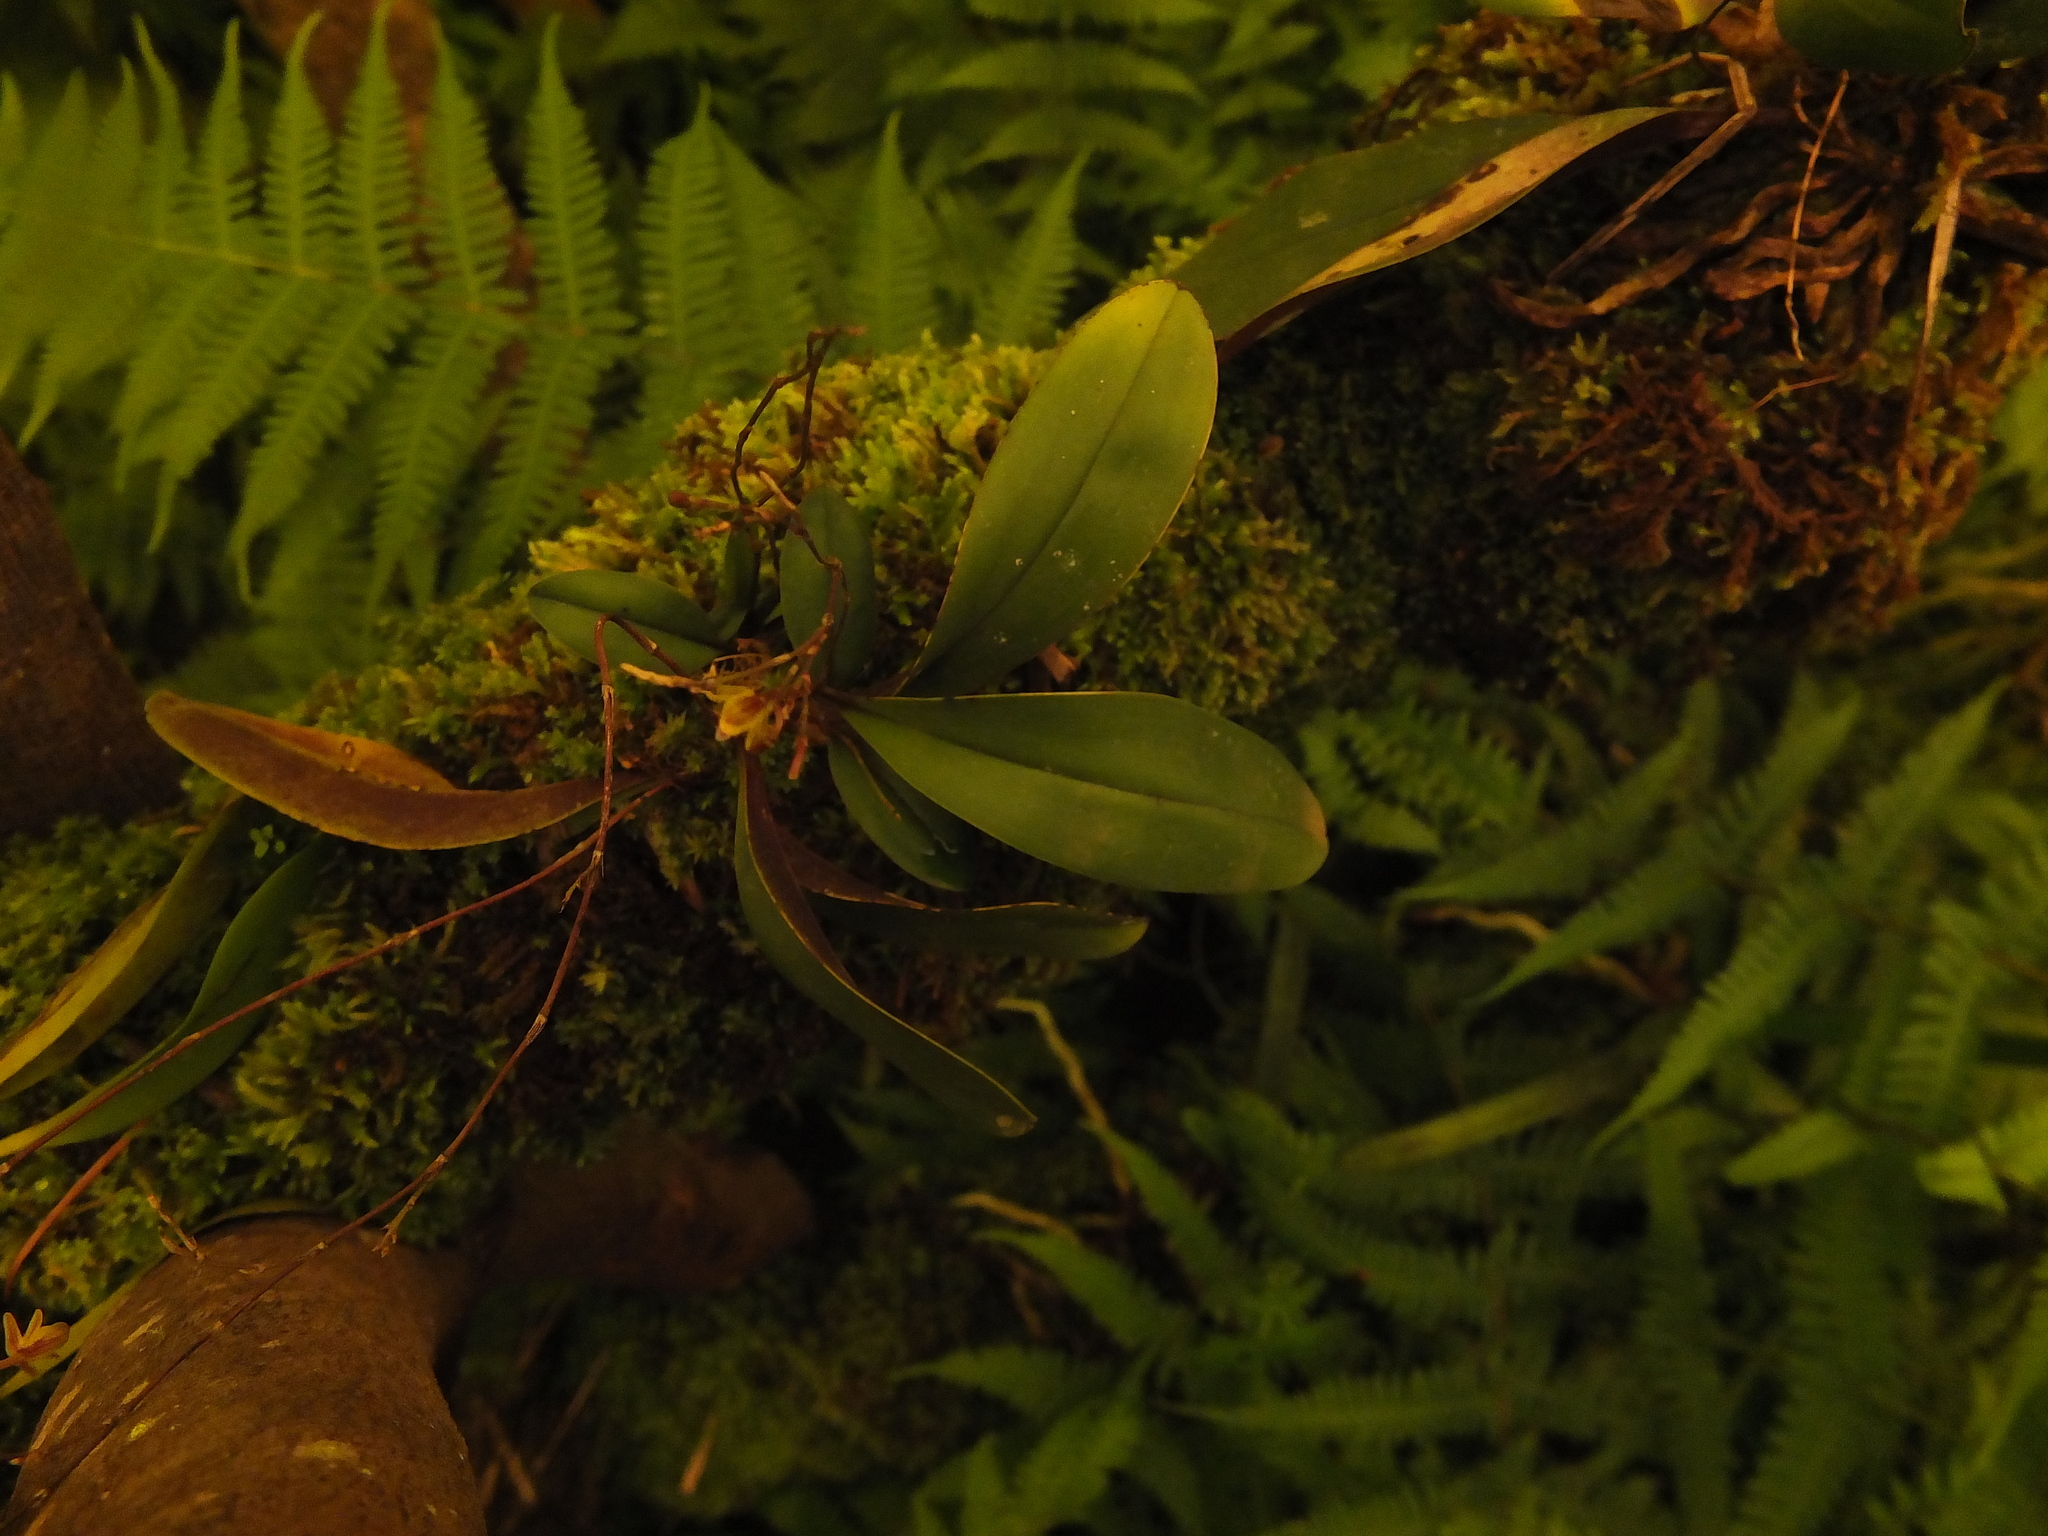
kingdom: Plantae
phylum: Tracheophyta
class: Liliopsida
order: Asparagales
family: Orchidaceae
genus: Sirhookera
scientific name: Sirhookera latifolia
